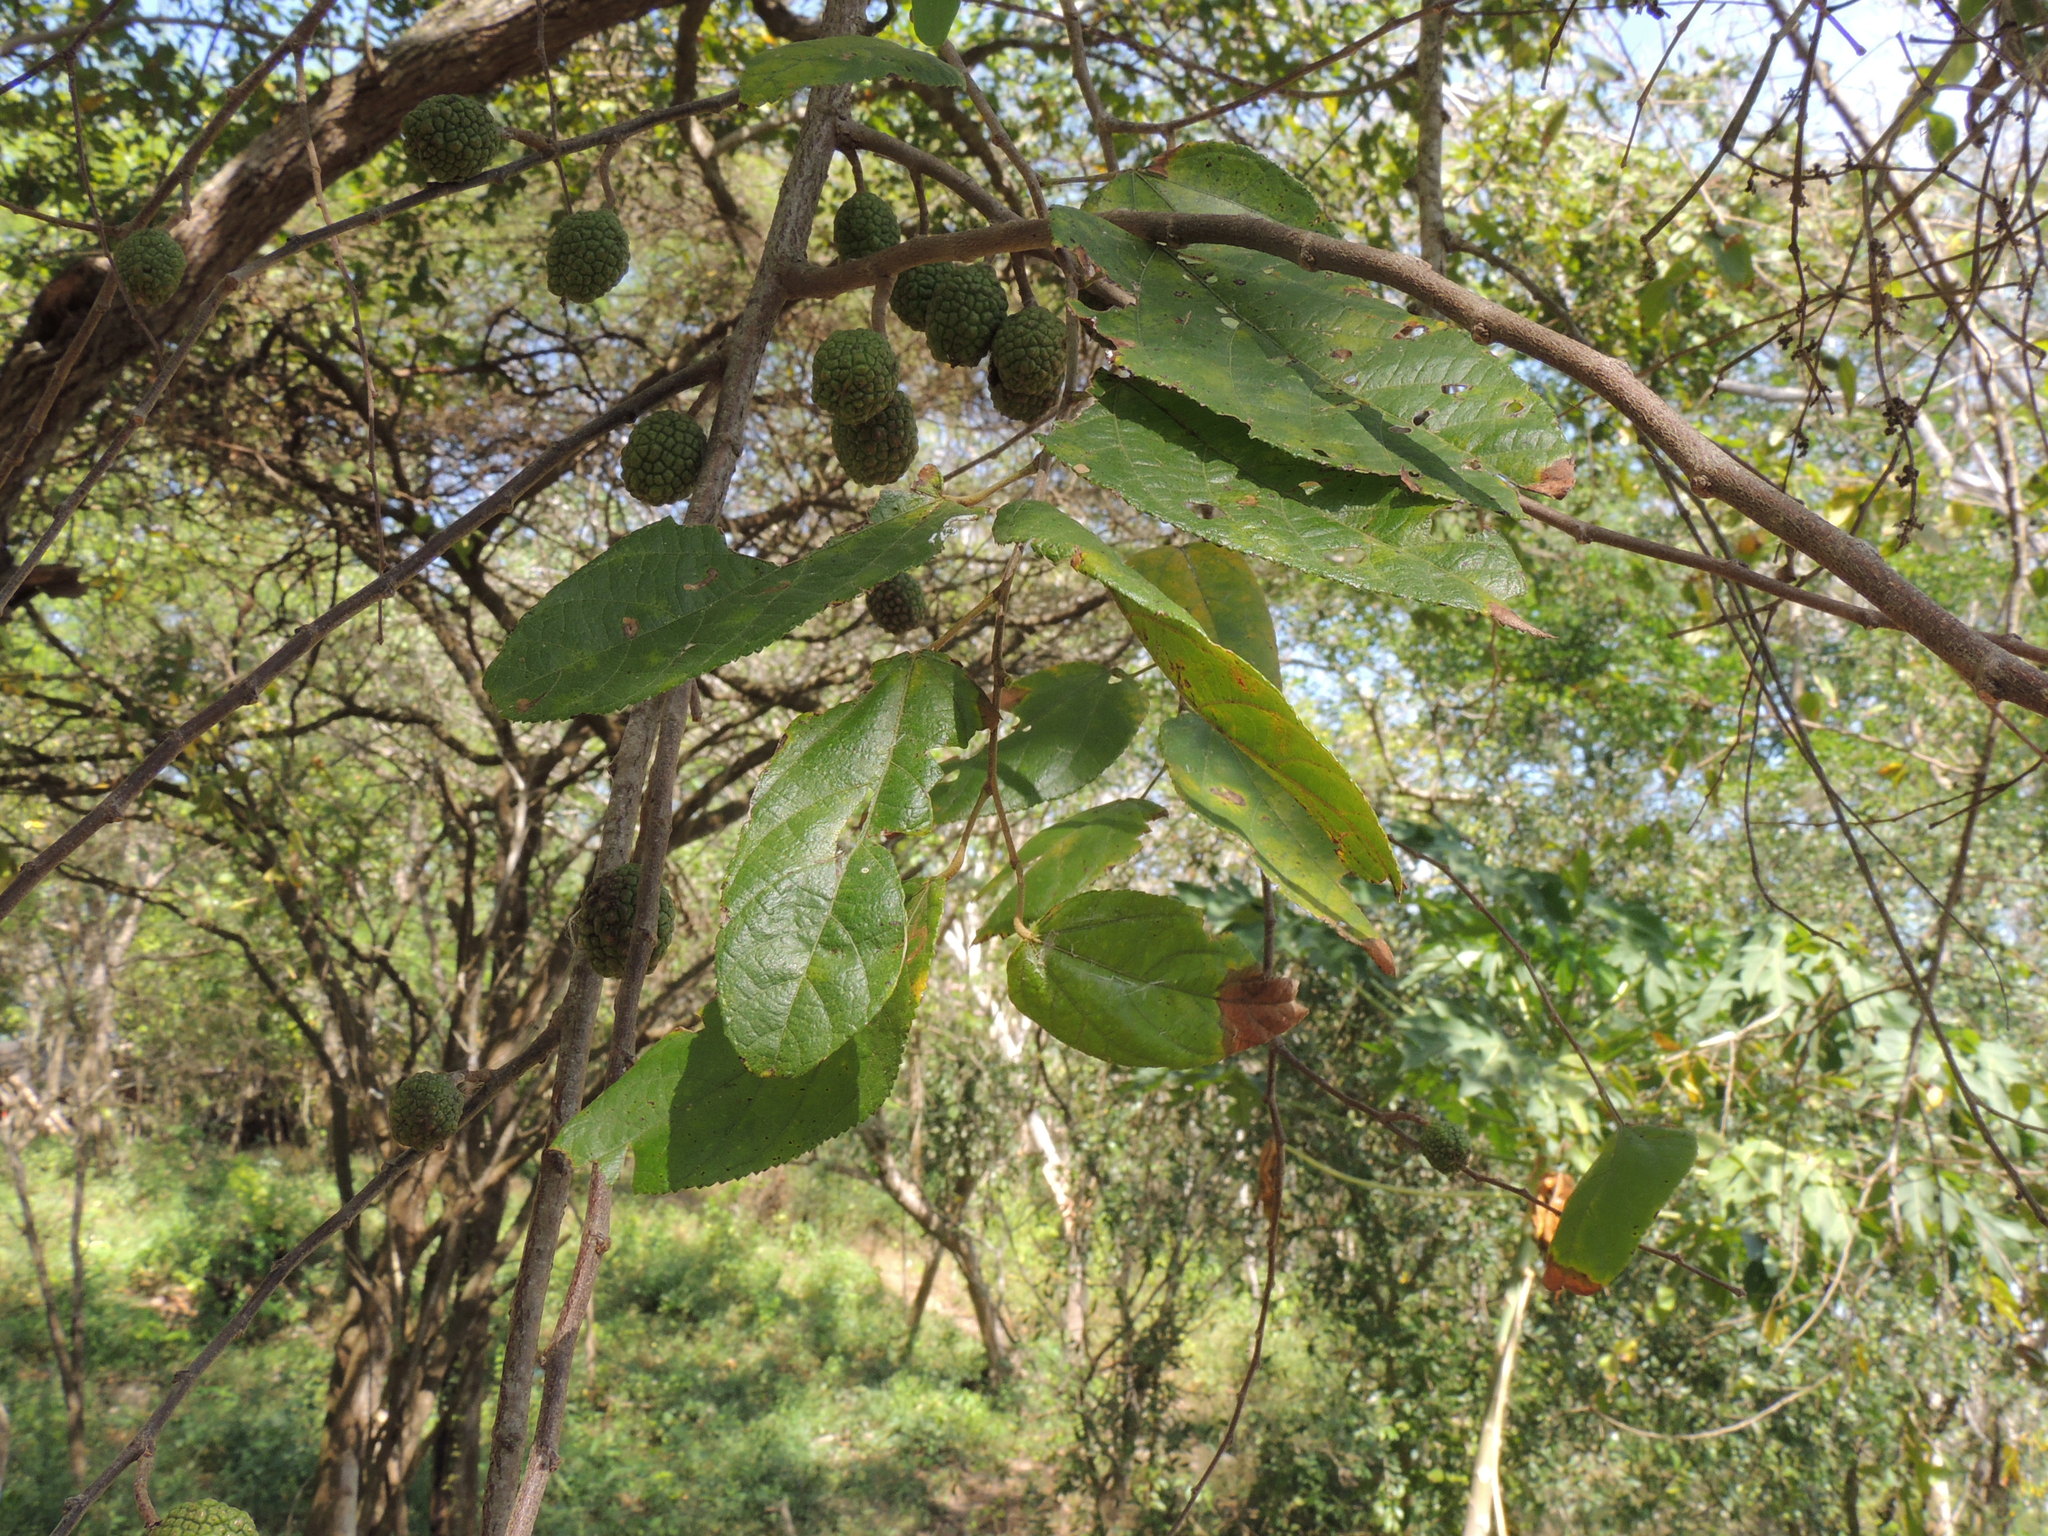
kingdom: Plantae
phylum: Tracheophyta
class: Magnoliopsida
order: Malvales
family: Malvaceae
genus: Guazuma
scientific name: Guazuma ulmifolia
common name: Bastard-cedar
